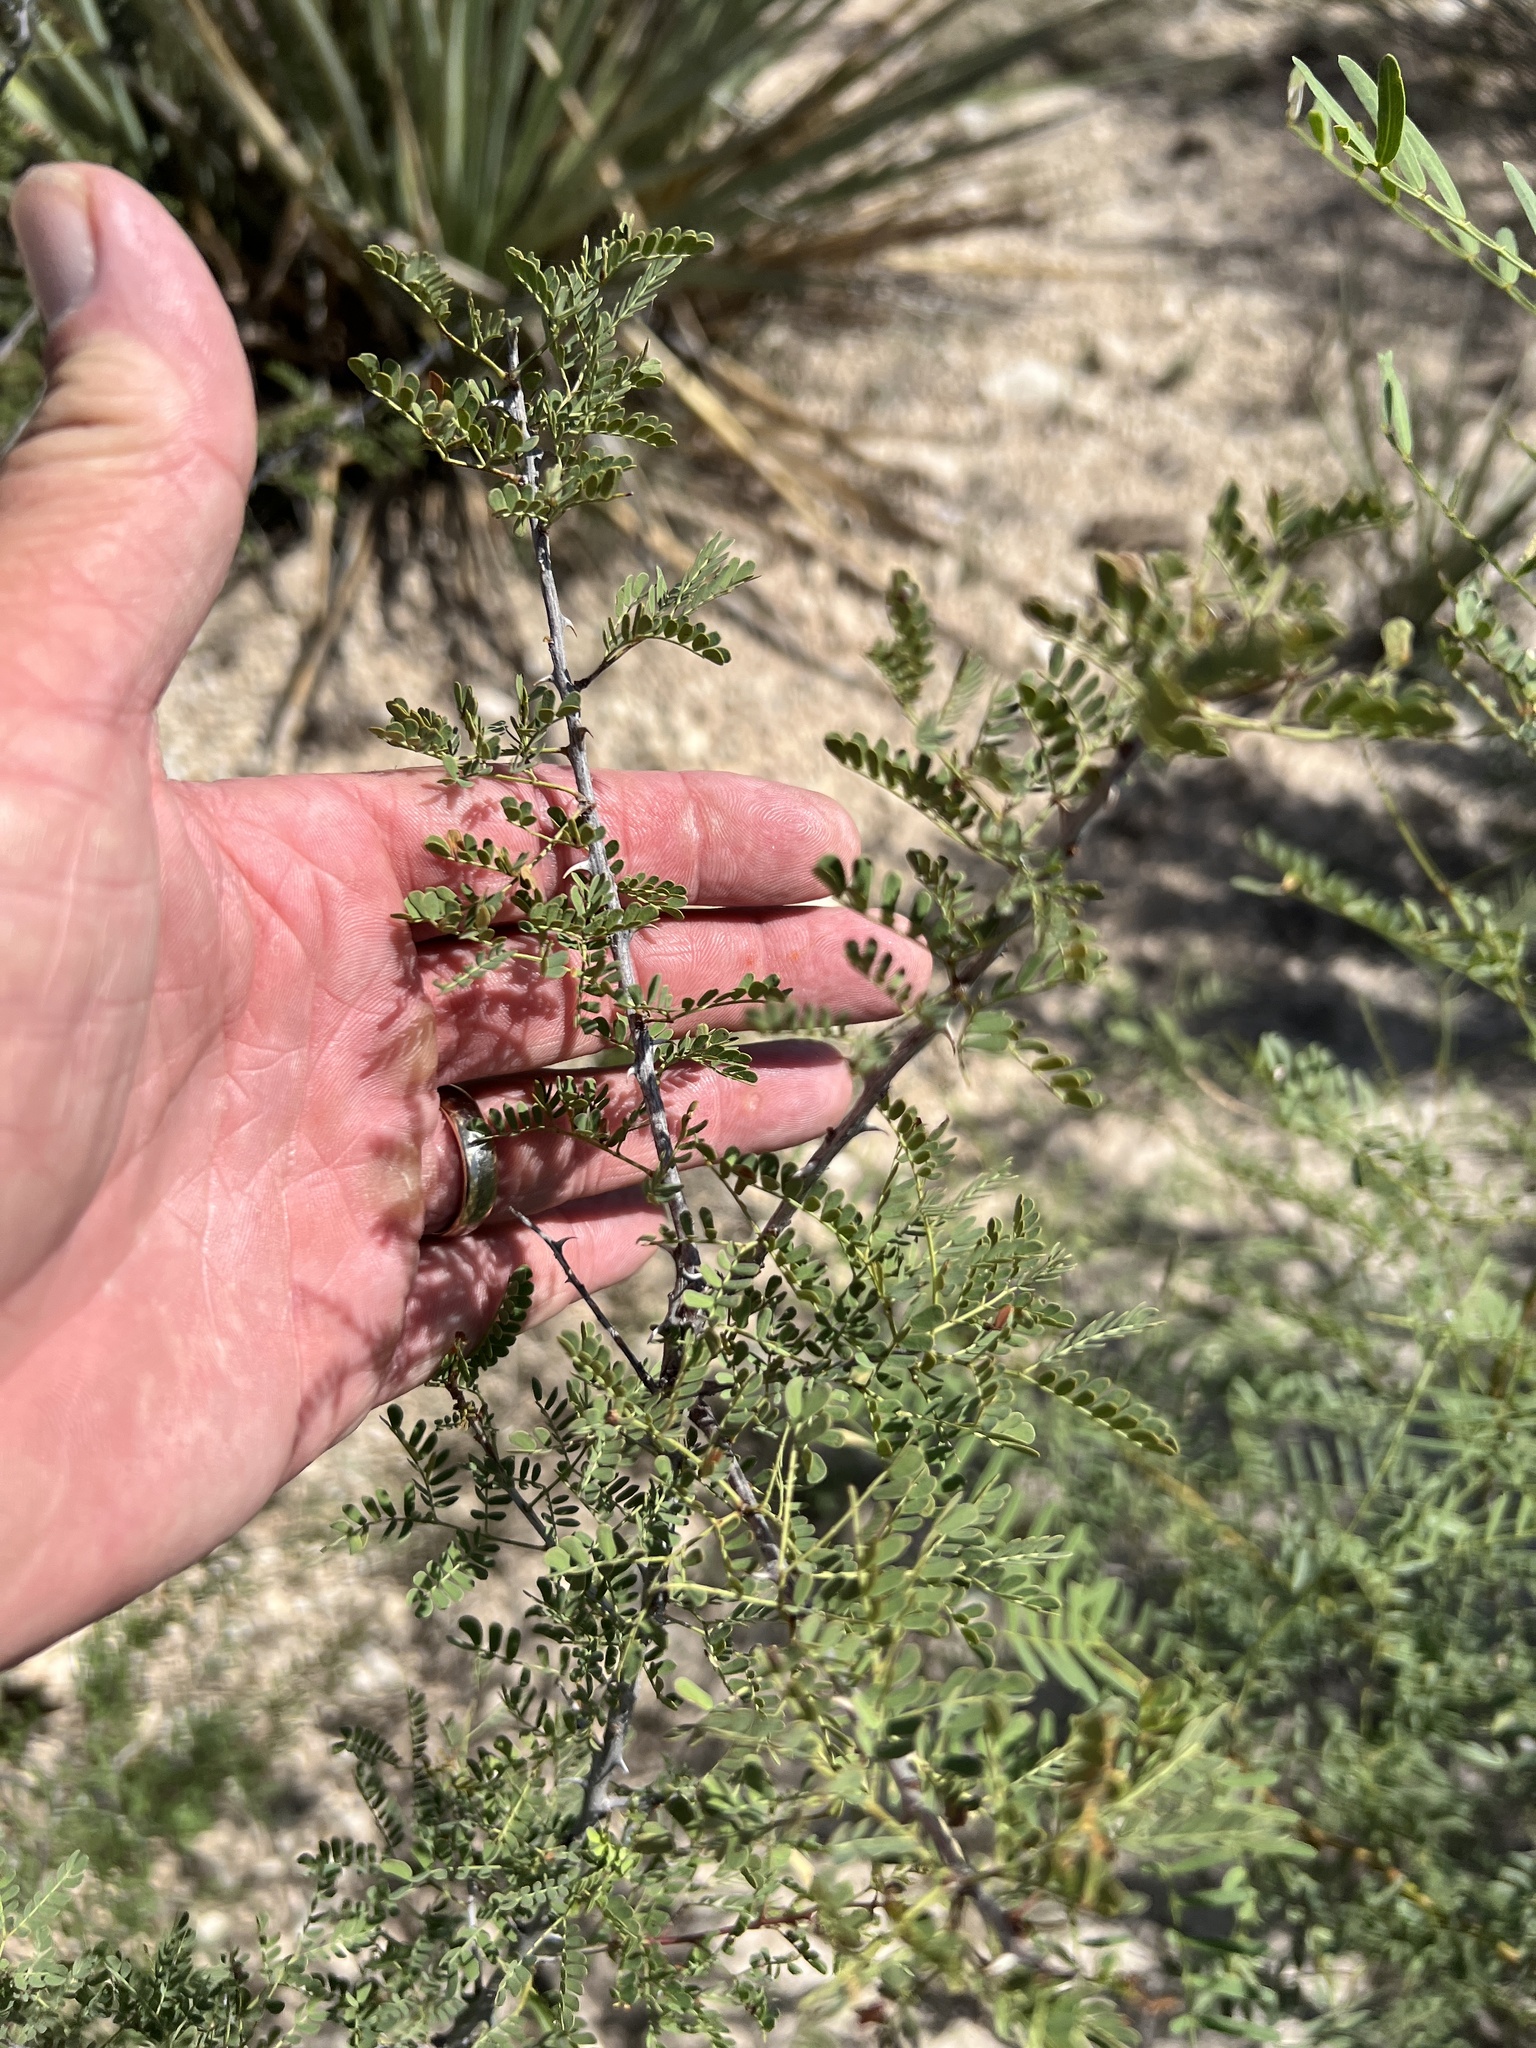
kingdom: Plantae
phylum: Tracheophyta
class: Magnoliopsida
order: Fabales
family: Fabaceae
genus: Senegalia
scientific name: Senegalia greggii
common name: Texas-mimosa
